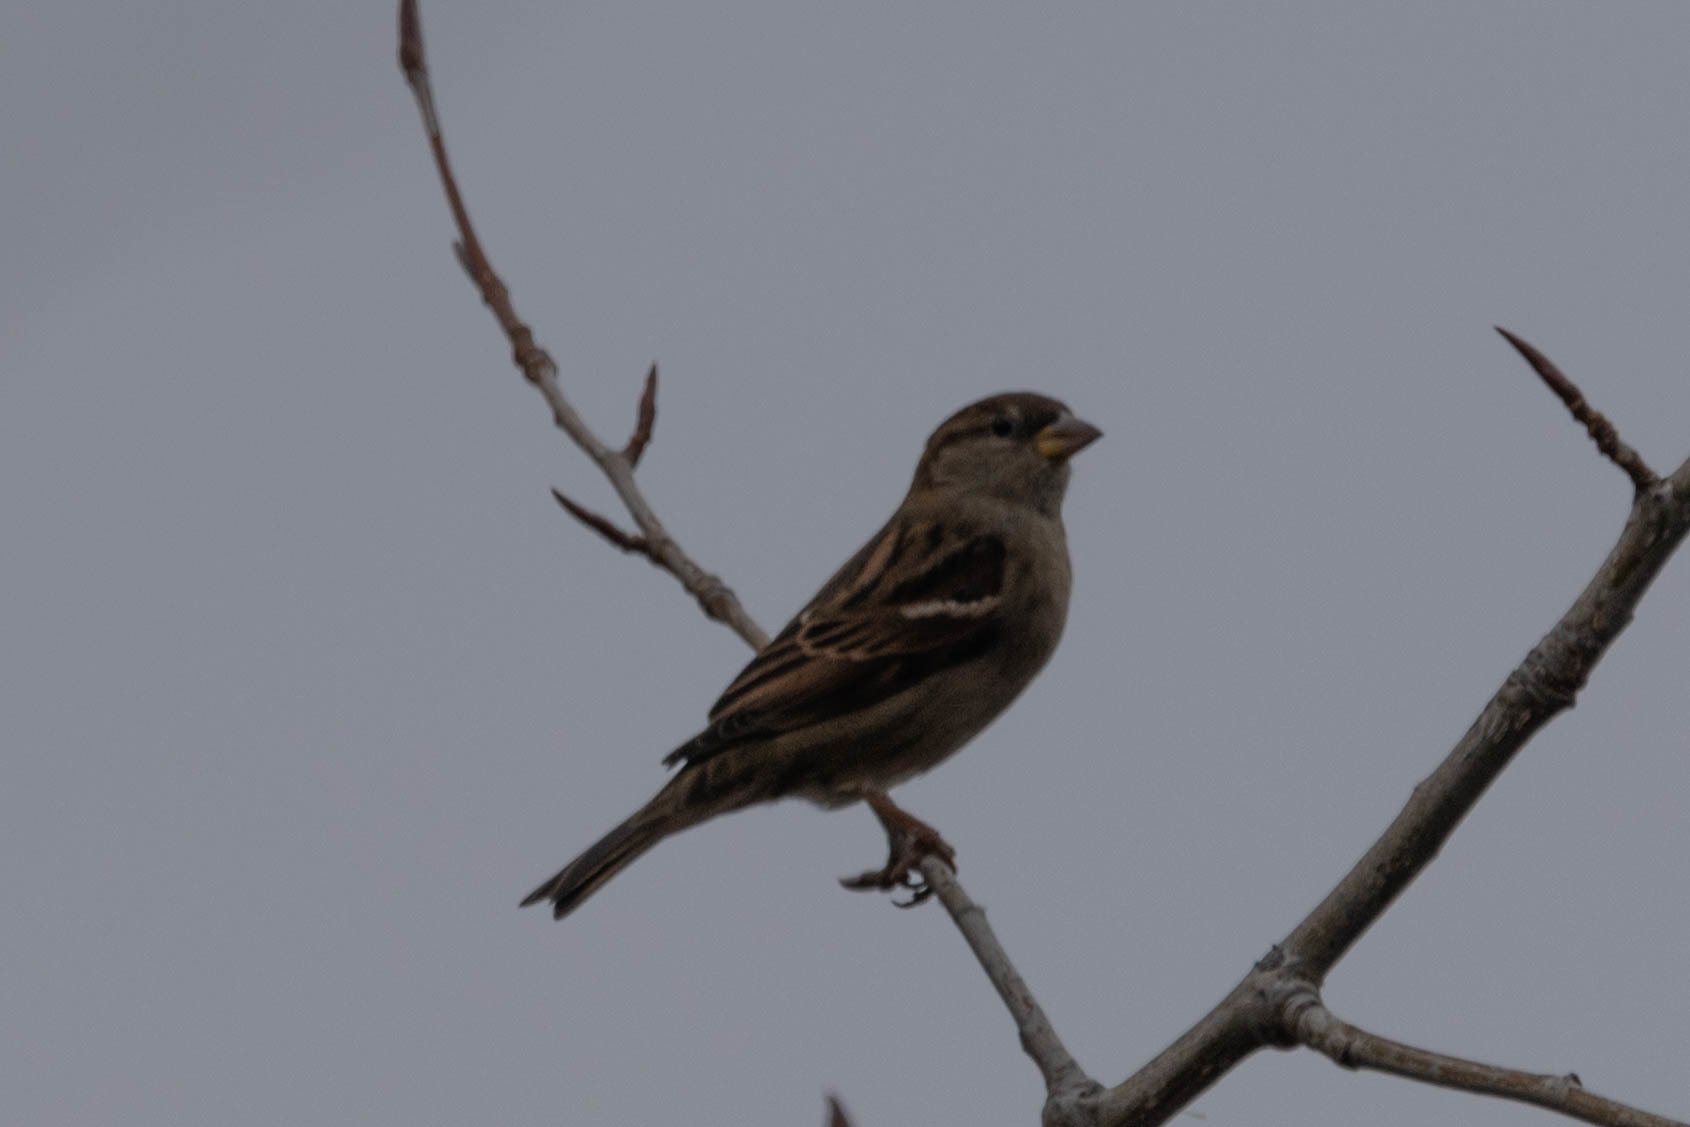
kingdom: Animalia
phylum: Chordata
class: Aves
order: Passeriformes
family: Passeridae
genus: Passer
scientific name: Passer domesticus
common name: House sparrow
